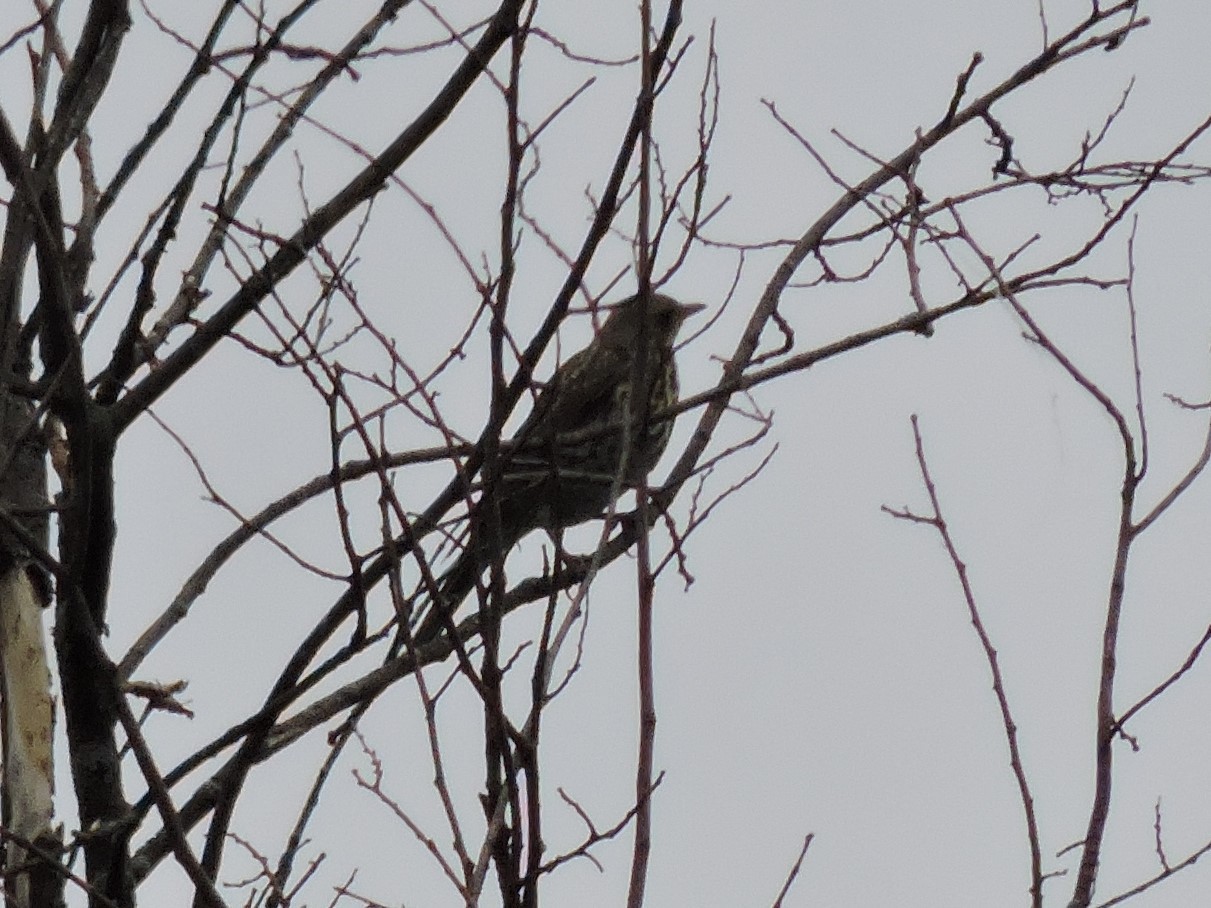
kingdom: Animalia
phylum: Chordata
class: Aves
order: Passeriformes
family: Turdidae
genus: Turdus
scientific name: Turdus pilaris
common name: Fieldfare
